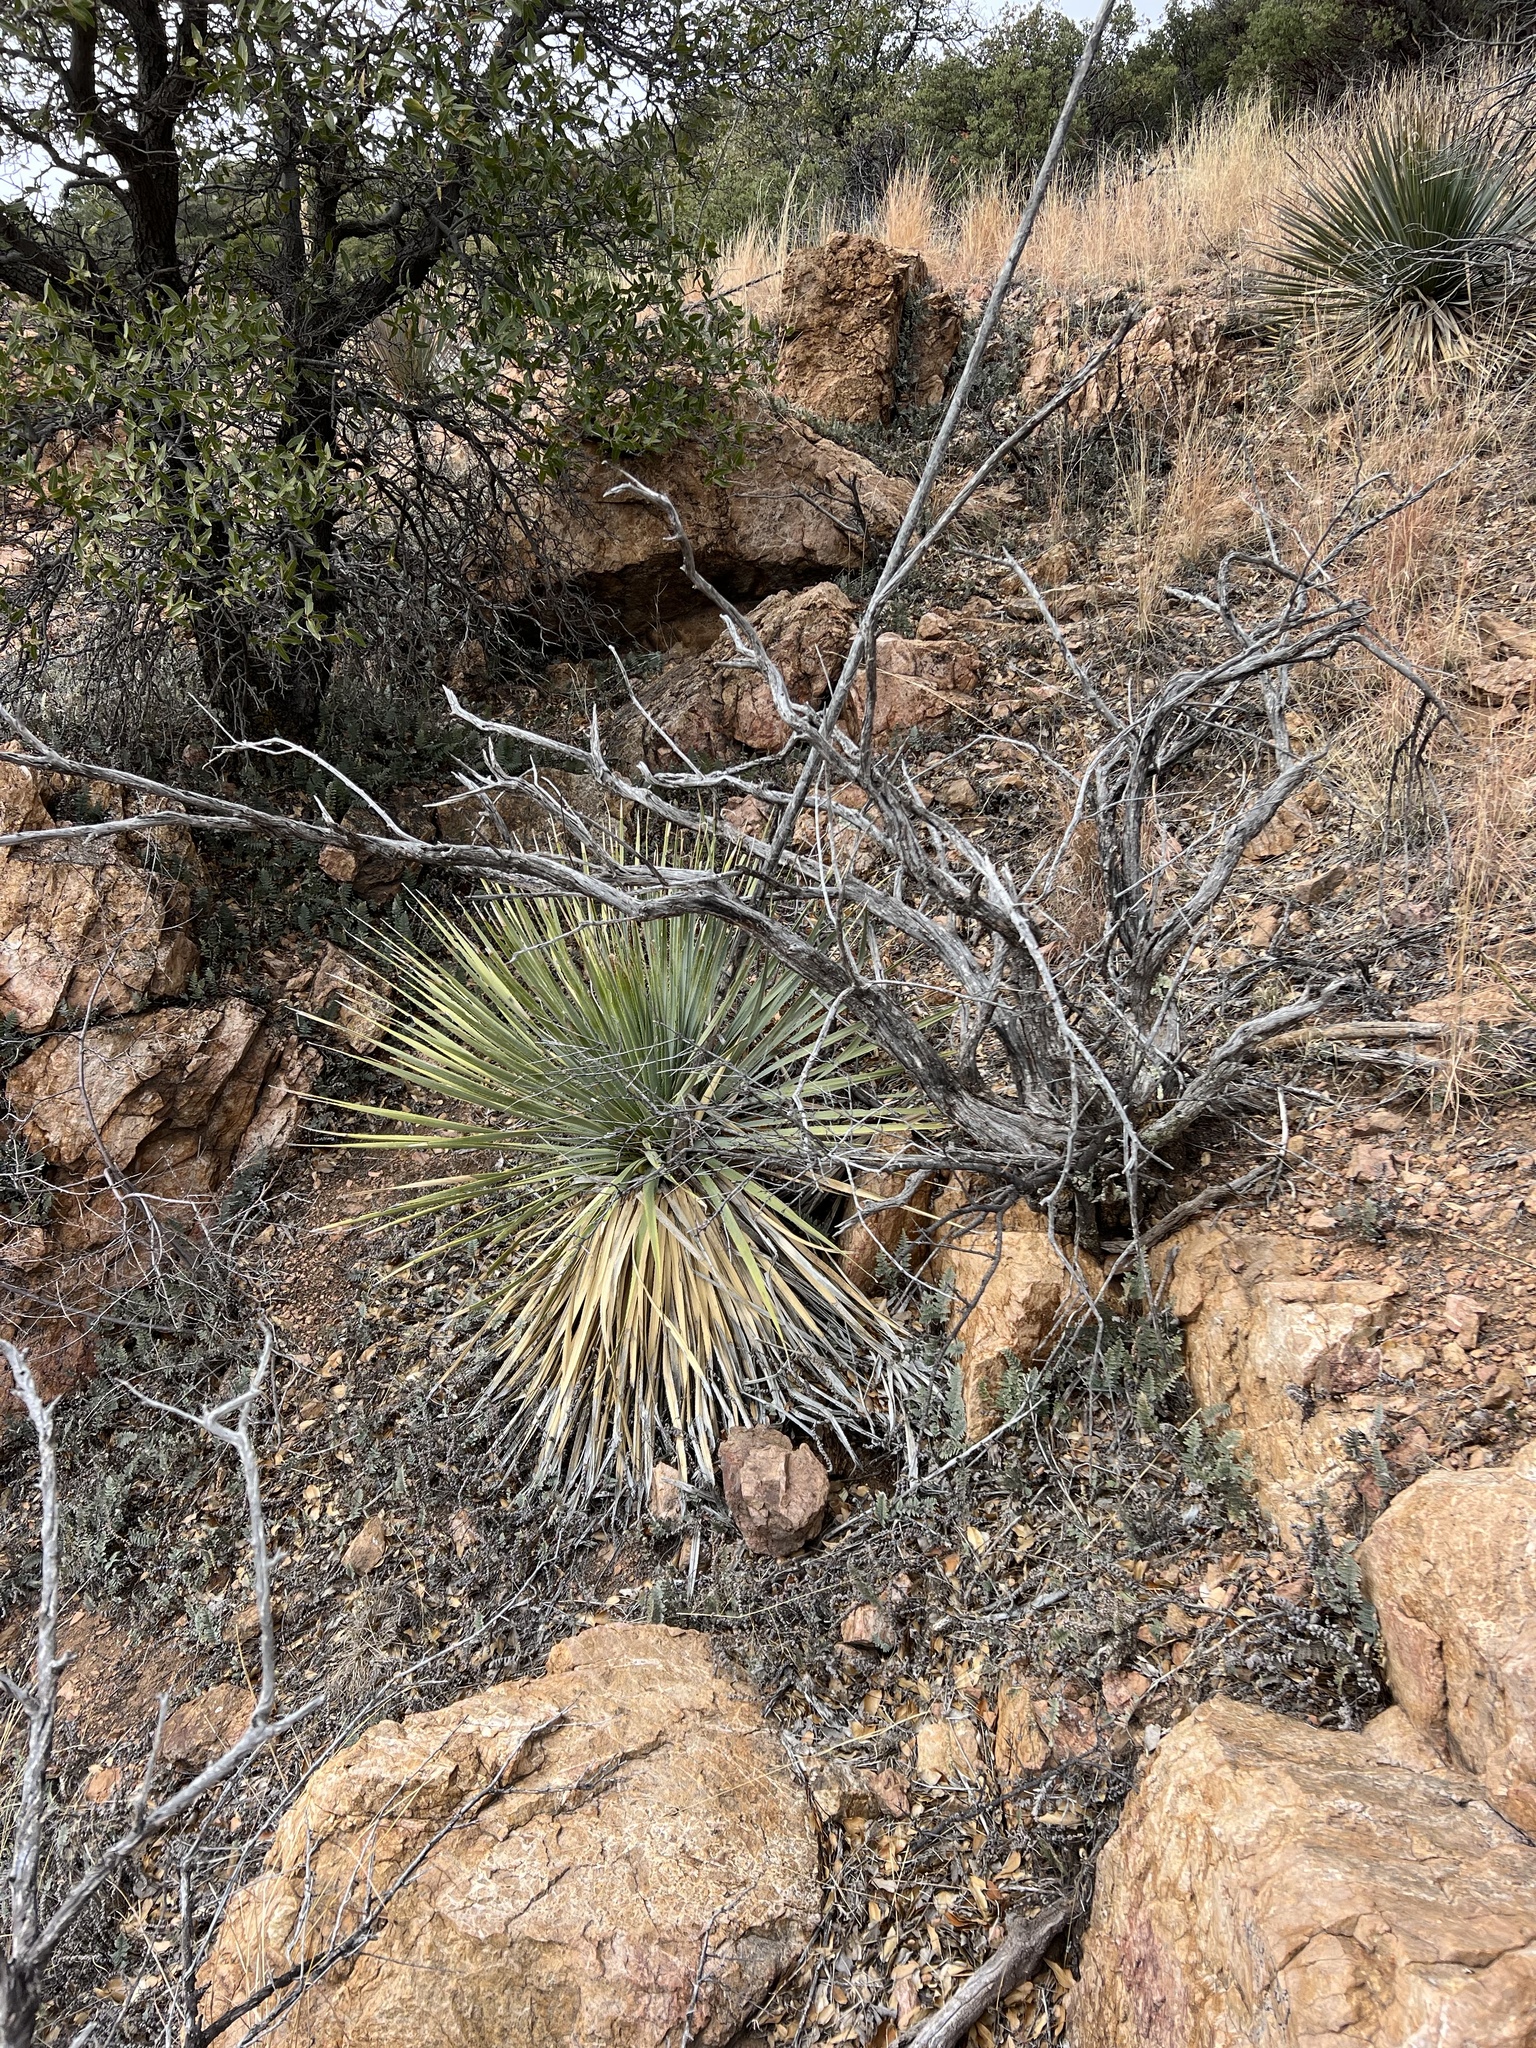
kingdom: Plantae
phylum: Tracheophyta
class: Liliopsida
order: Asparagales
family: Asparagaceae
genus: Yucca
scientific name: Yucca elata
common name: Palmella
